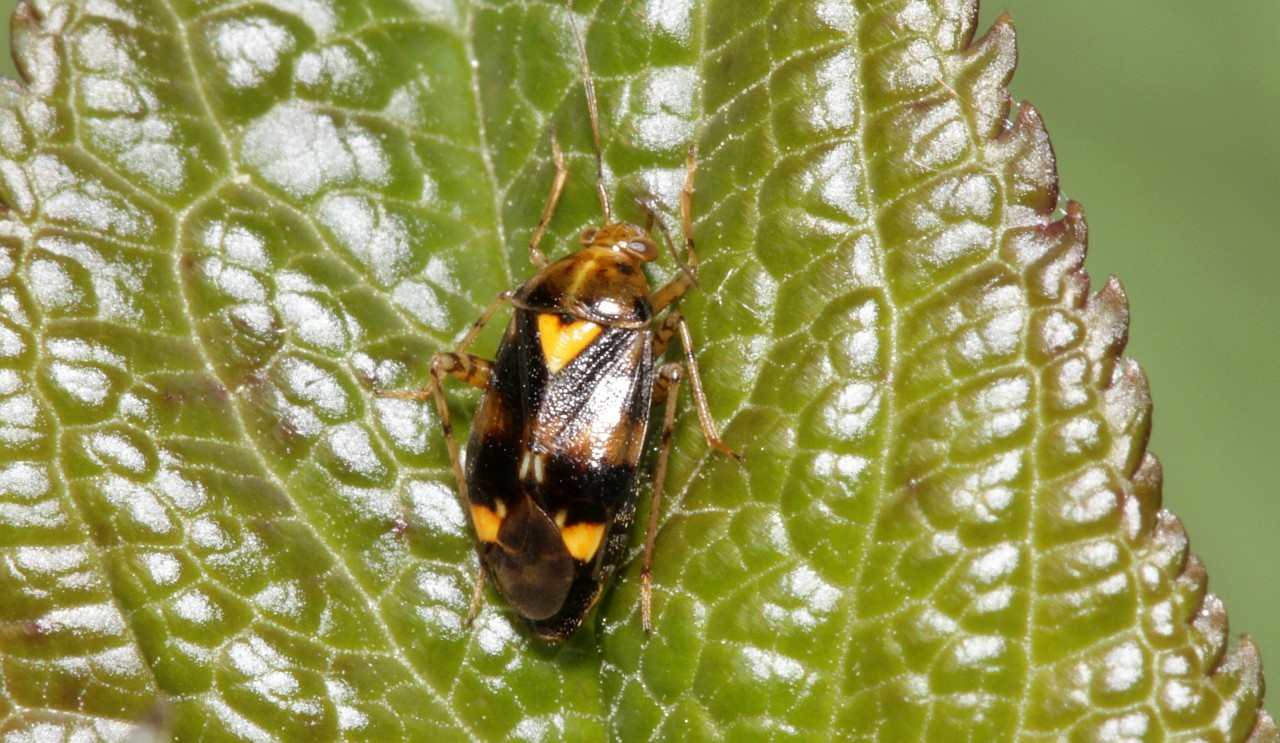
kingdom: Animalia
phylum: Arthropoda
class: Insecta
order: Hemiptera
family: Miridae
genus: Liocoris
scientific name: Liocoris tripustulatus
